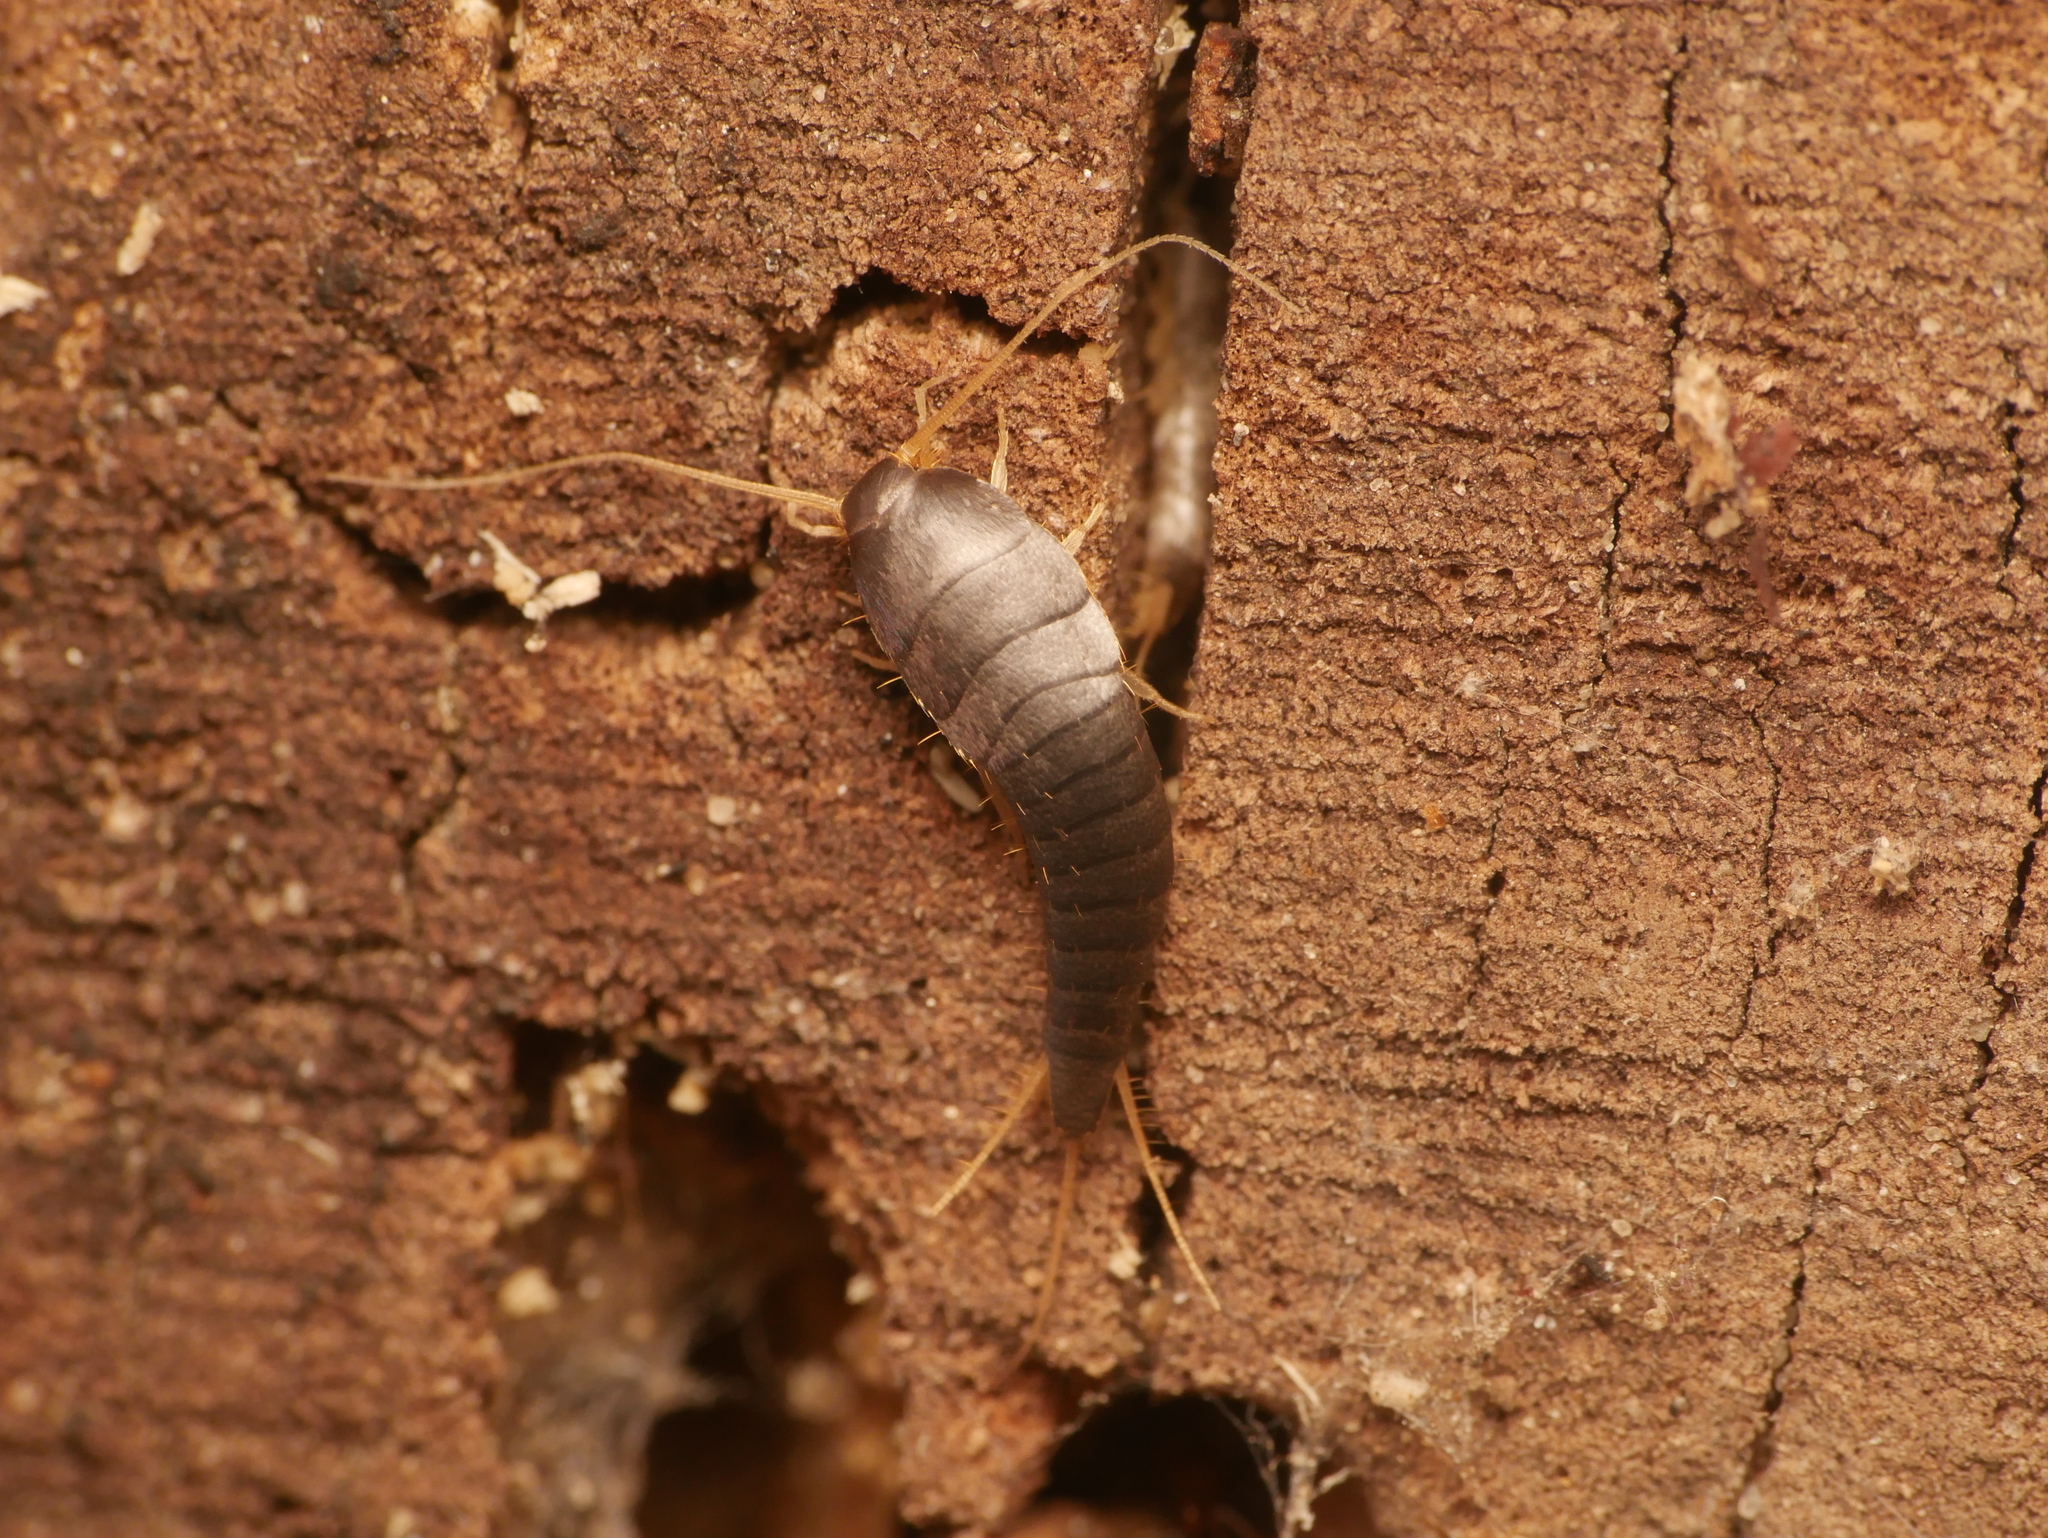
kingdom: Animalia
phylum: Arthropoda
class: Insecta
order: Zygentoma
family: Lepismatidae
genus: Lepisma
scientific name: Lepisma saccharinum
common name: Silverfish
